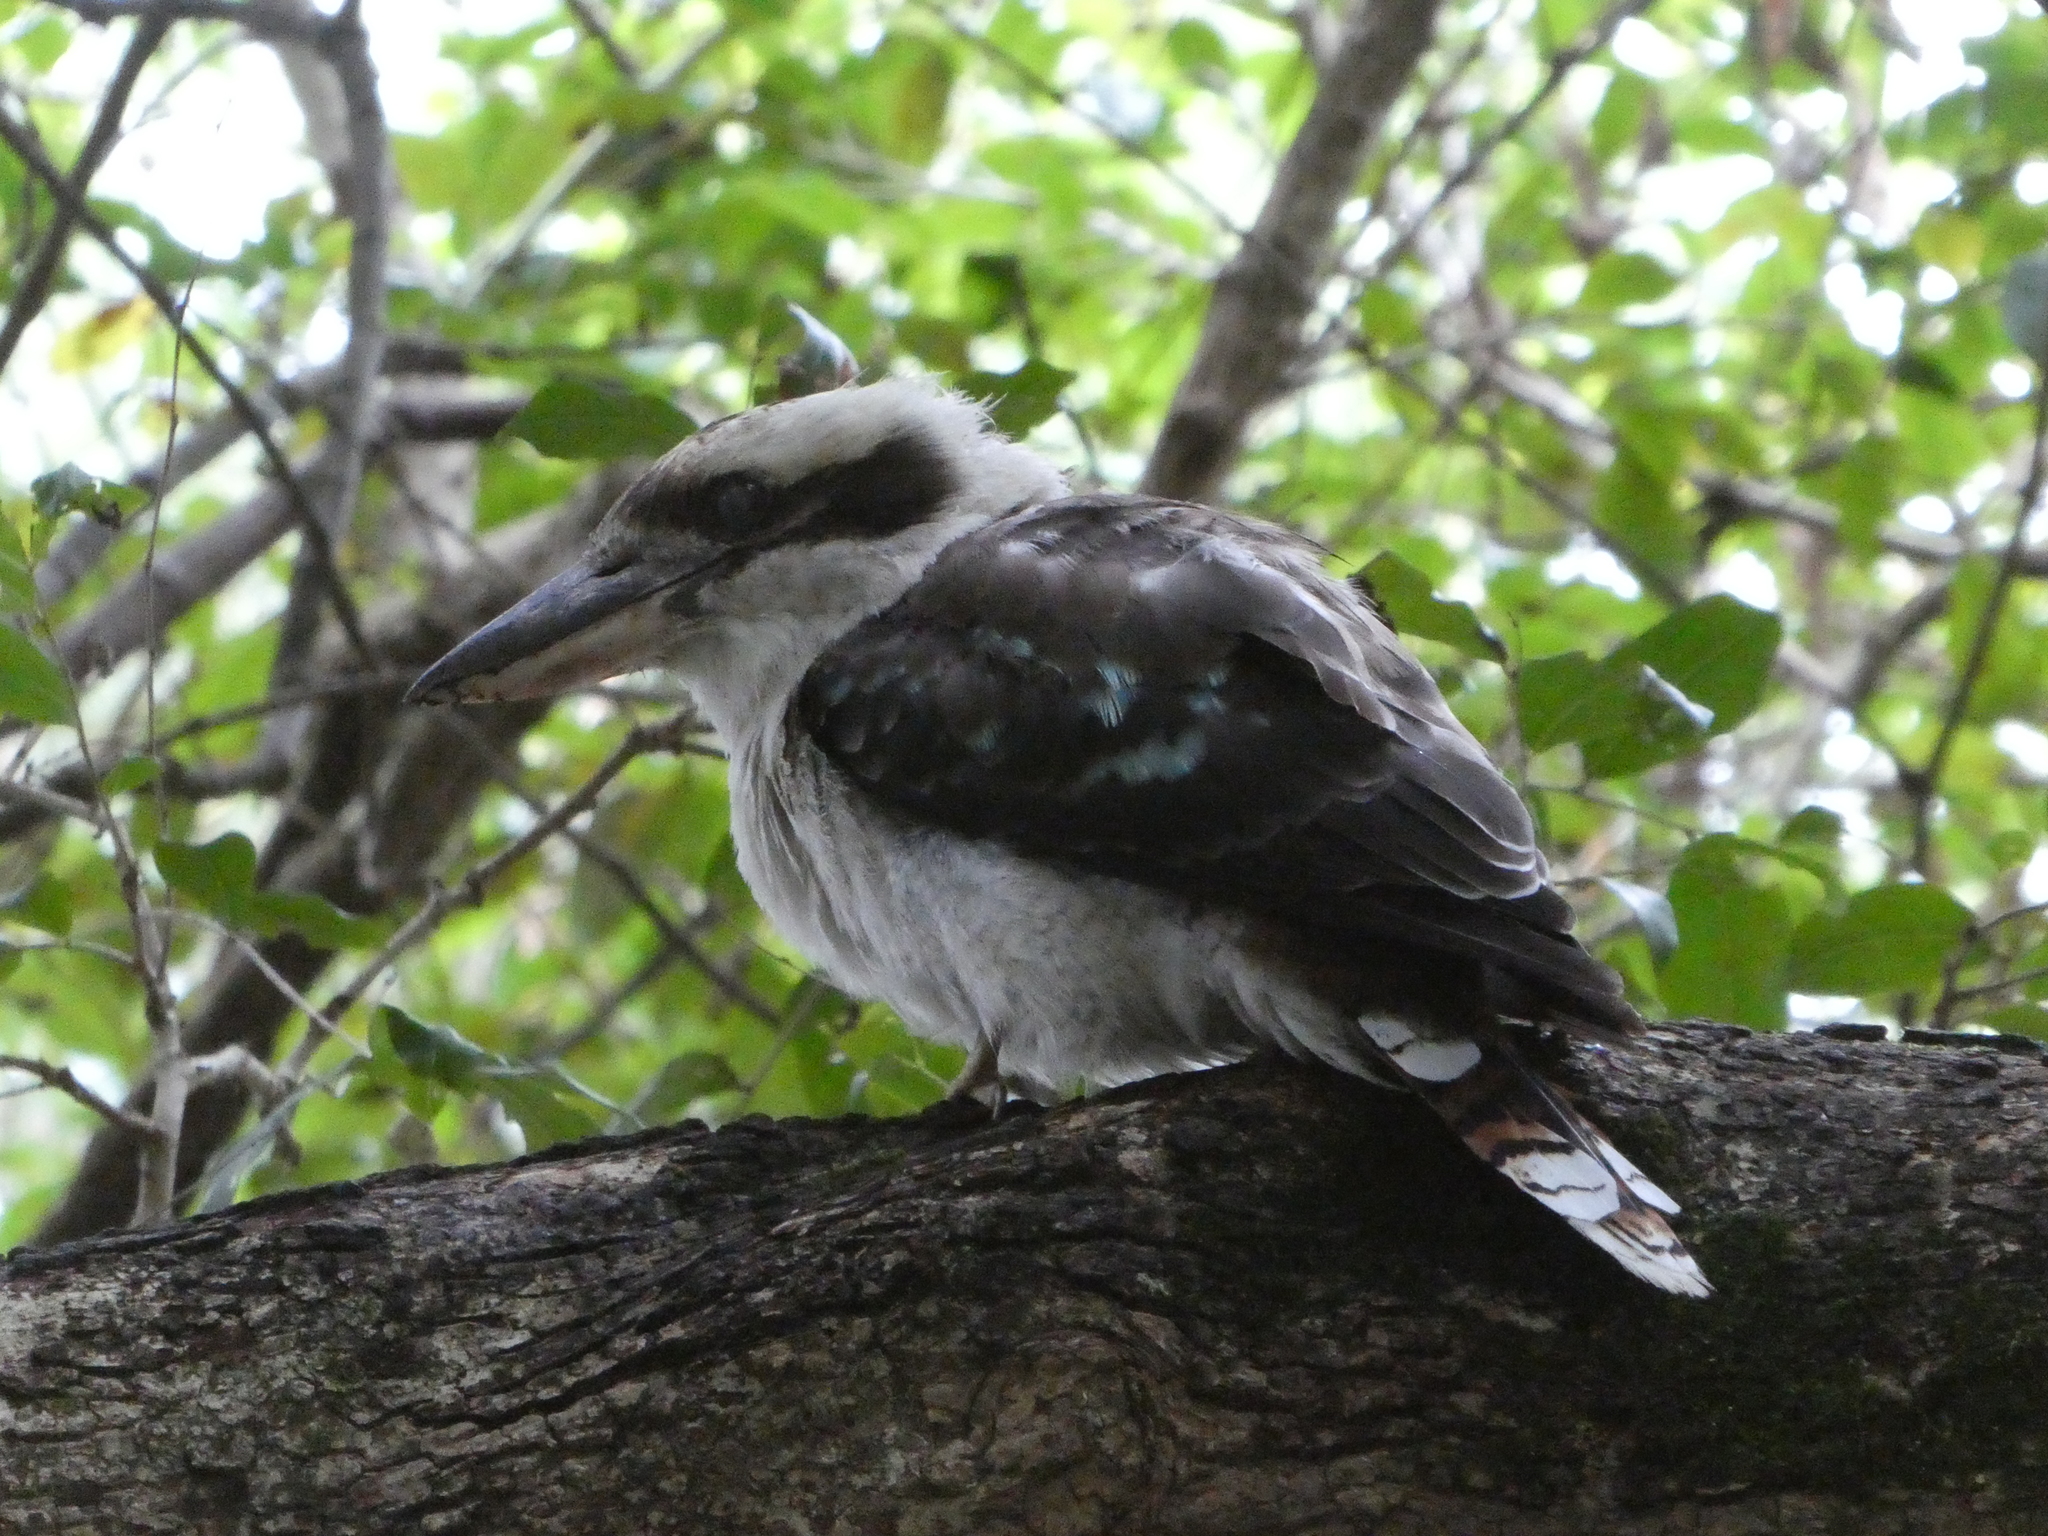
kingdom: Animalia
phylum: Chordata
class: Aves
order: Coraciiformes
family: Alcedinidae
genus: Dacelo
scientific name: Dacelo novaeguineae
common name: Laughing kookaburra
